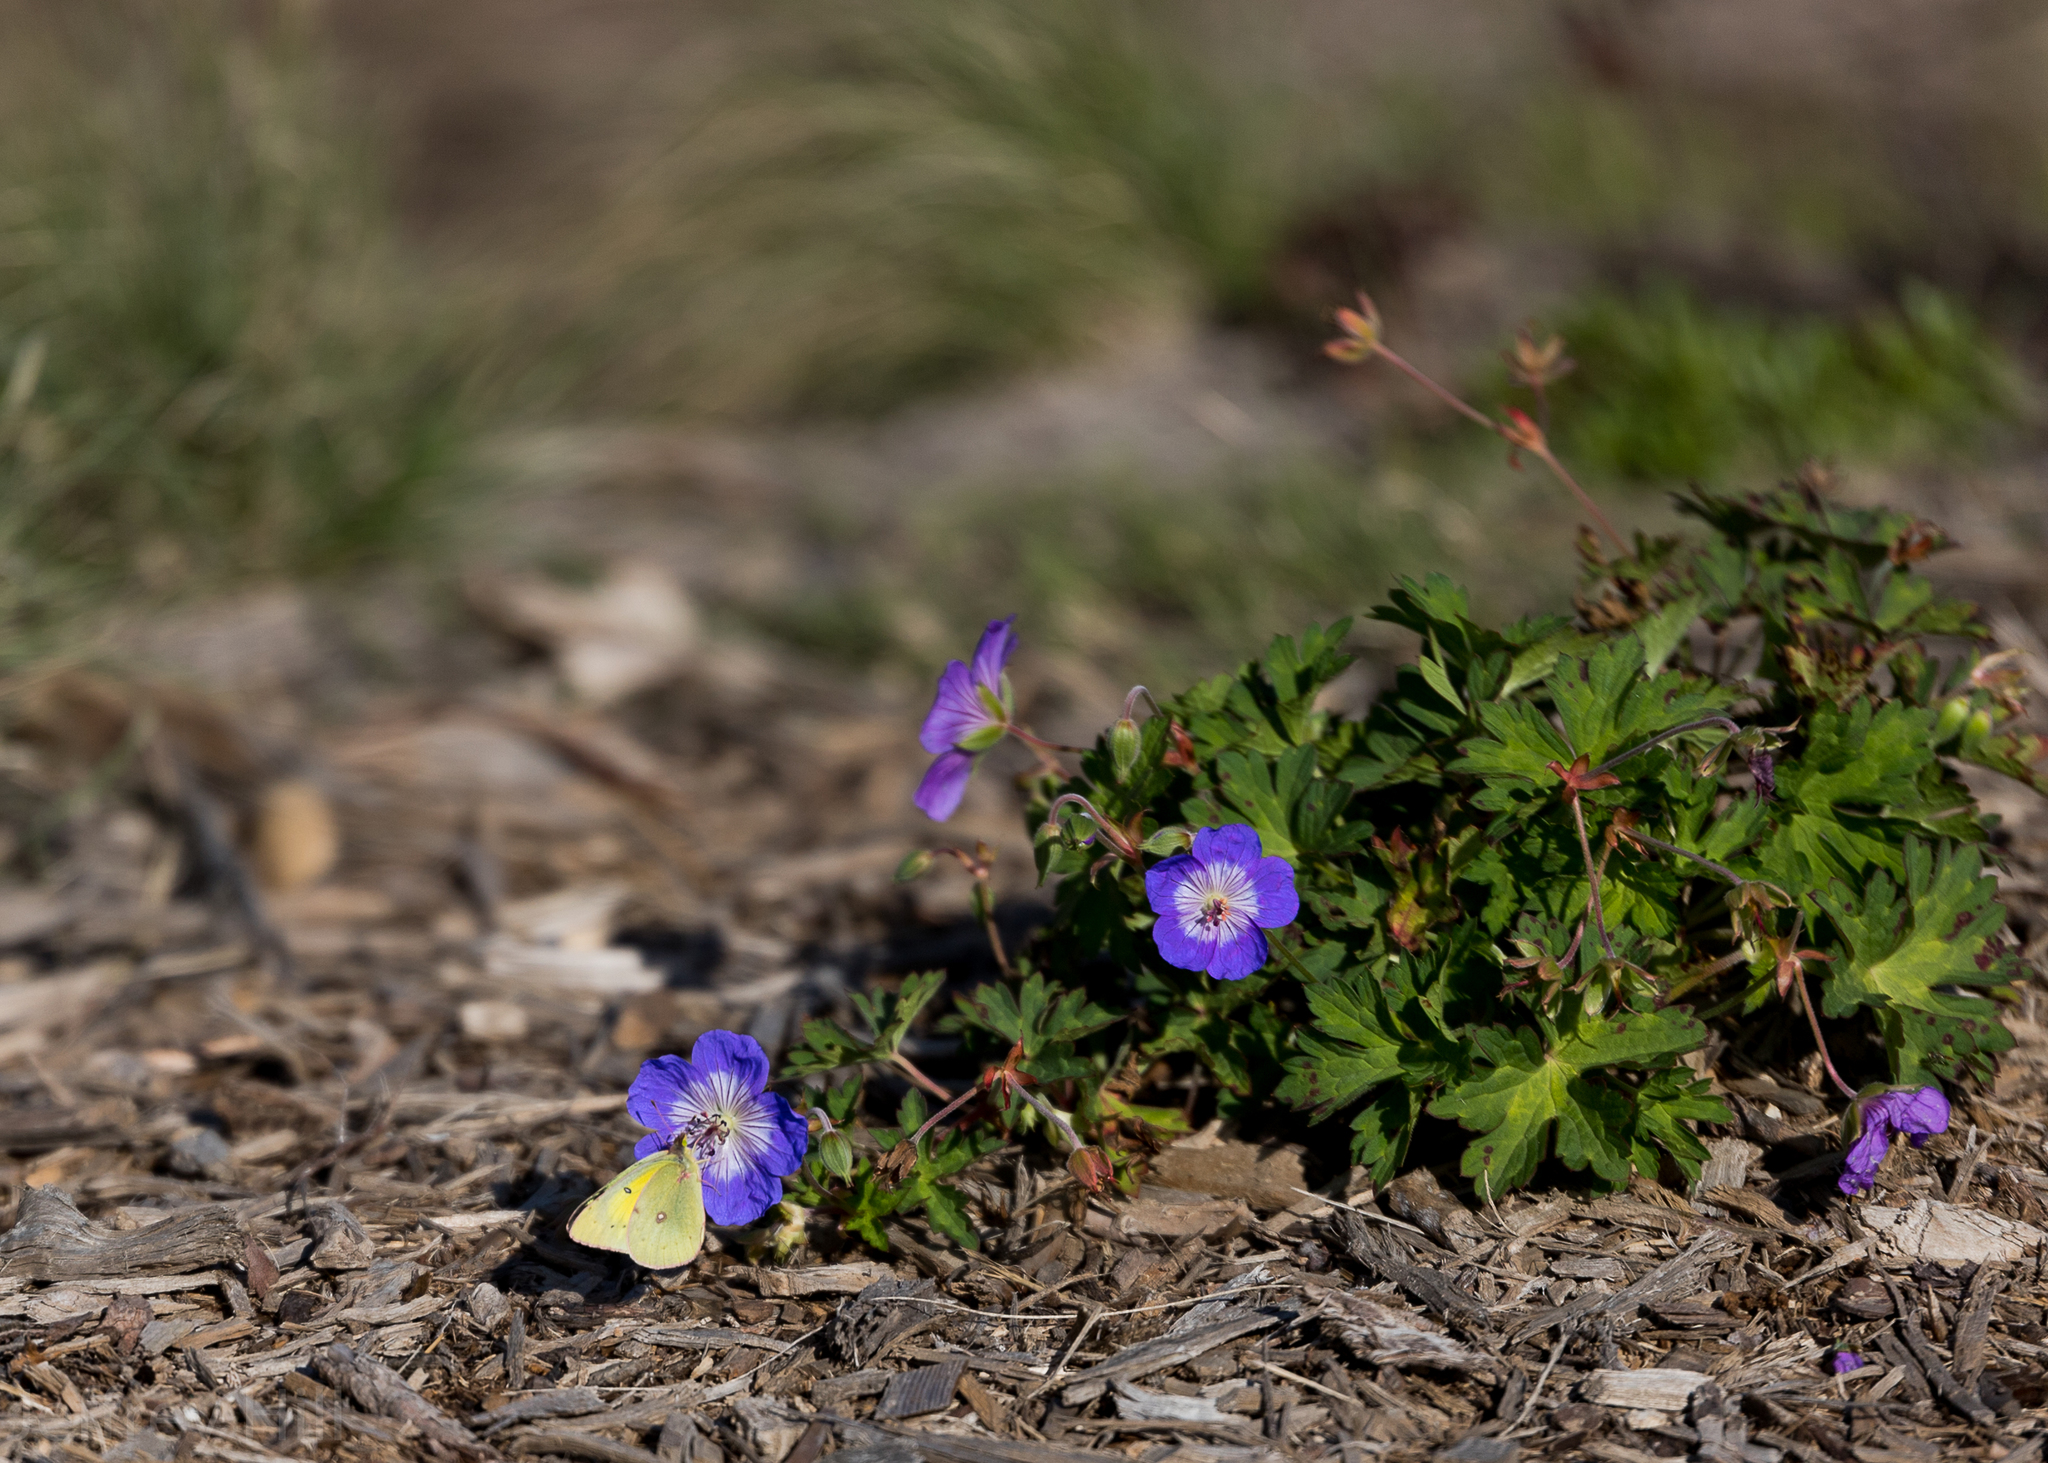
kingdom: Animalia
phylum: Arthropoda
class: Insecta
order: Lepidoptera
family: Pieridae
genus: Colias
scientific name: Colias eurytheme
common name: Alfalfa butterfly
